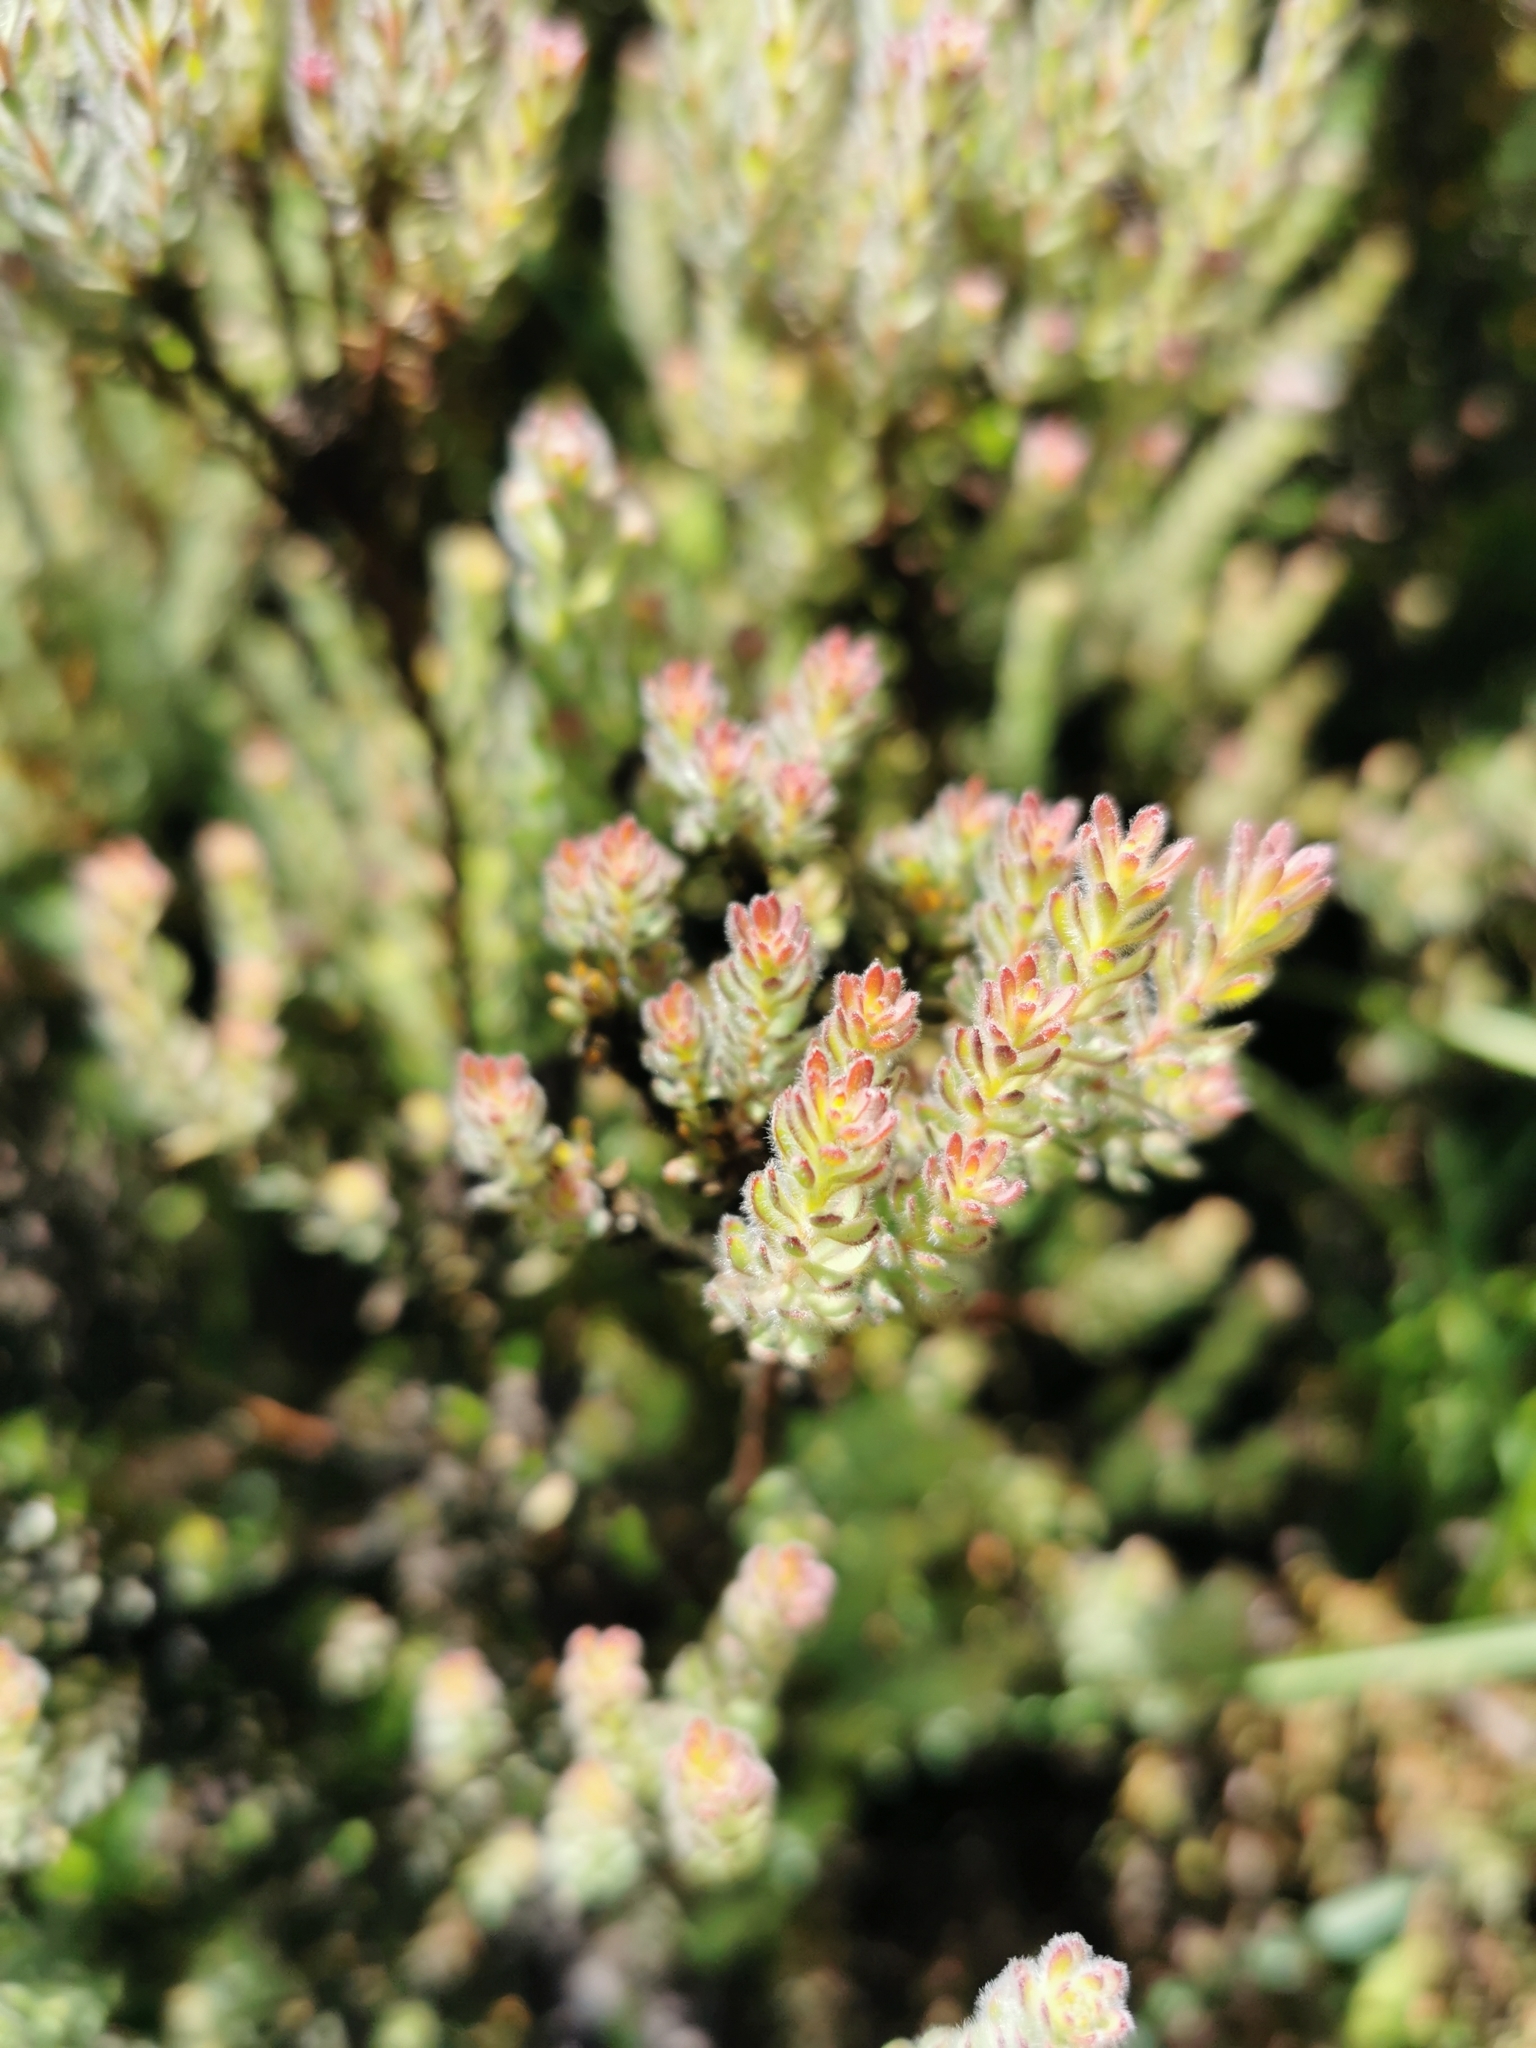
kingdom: Plantae
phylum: Tracheophyta
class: Magnoliopsida
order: Proteales
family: Proteaceae
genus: Leucadendron
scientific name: Leucadendron levisanus
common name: Cape flats conebush
